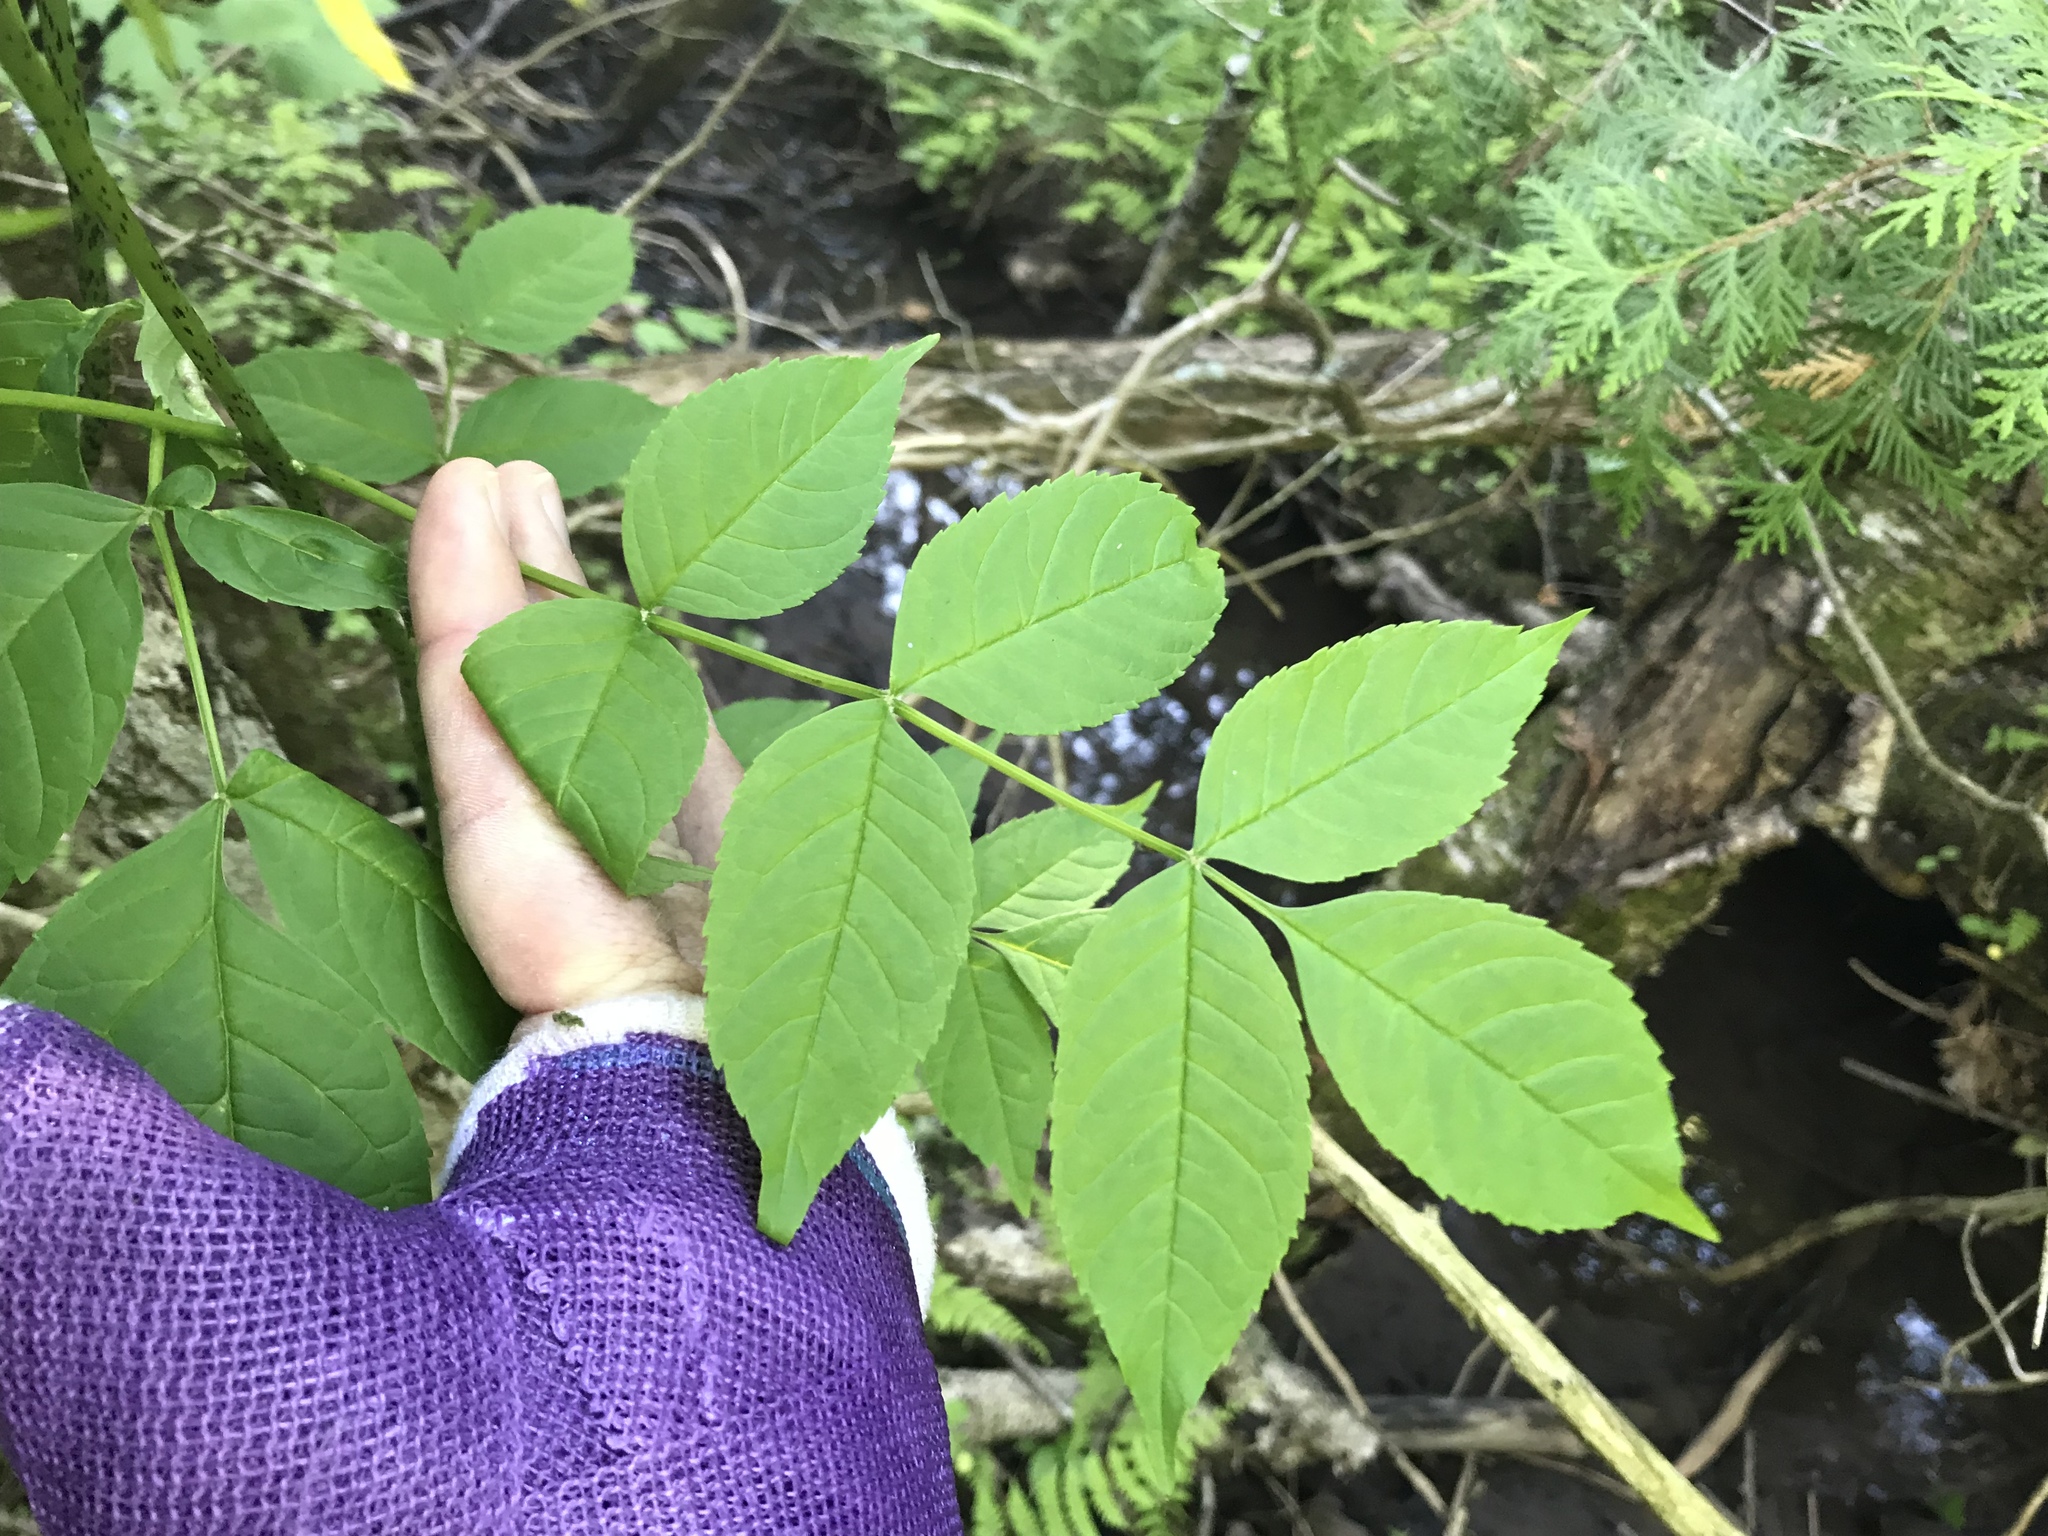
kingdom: Plantae
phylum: Tracheophyta
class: Magnoliopsida
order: Lamiales
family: Oleaceae
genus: Fraxinus
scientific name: Fraxinus nigra
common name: Black ash
